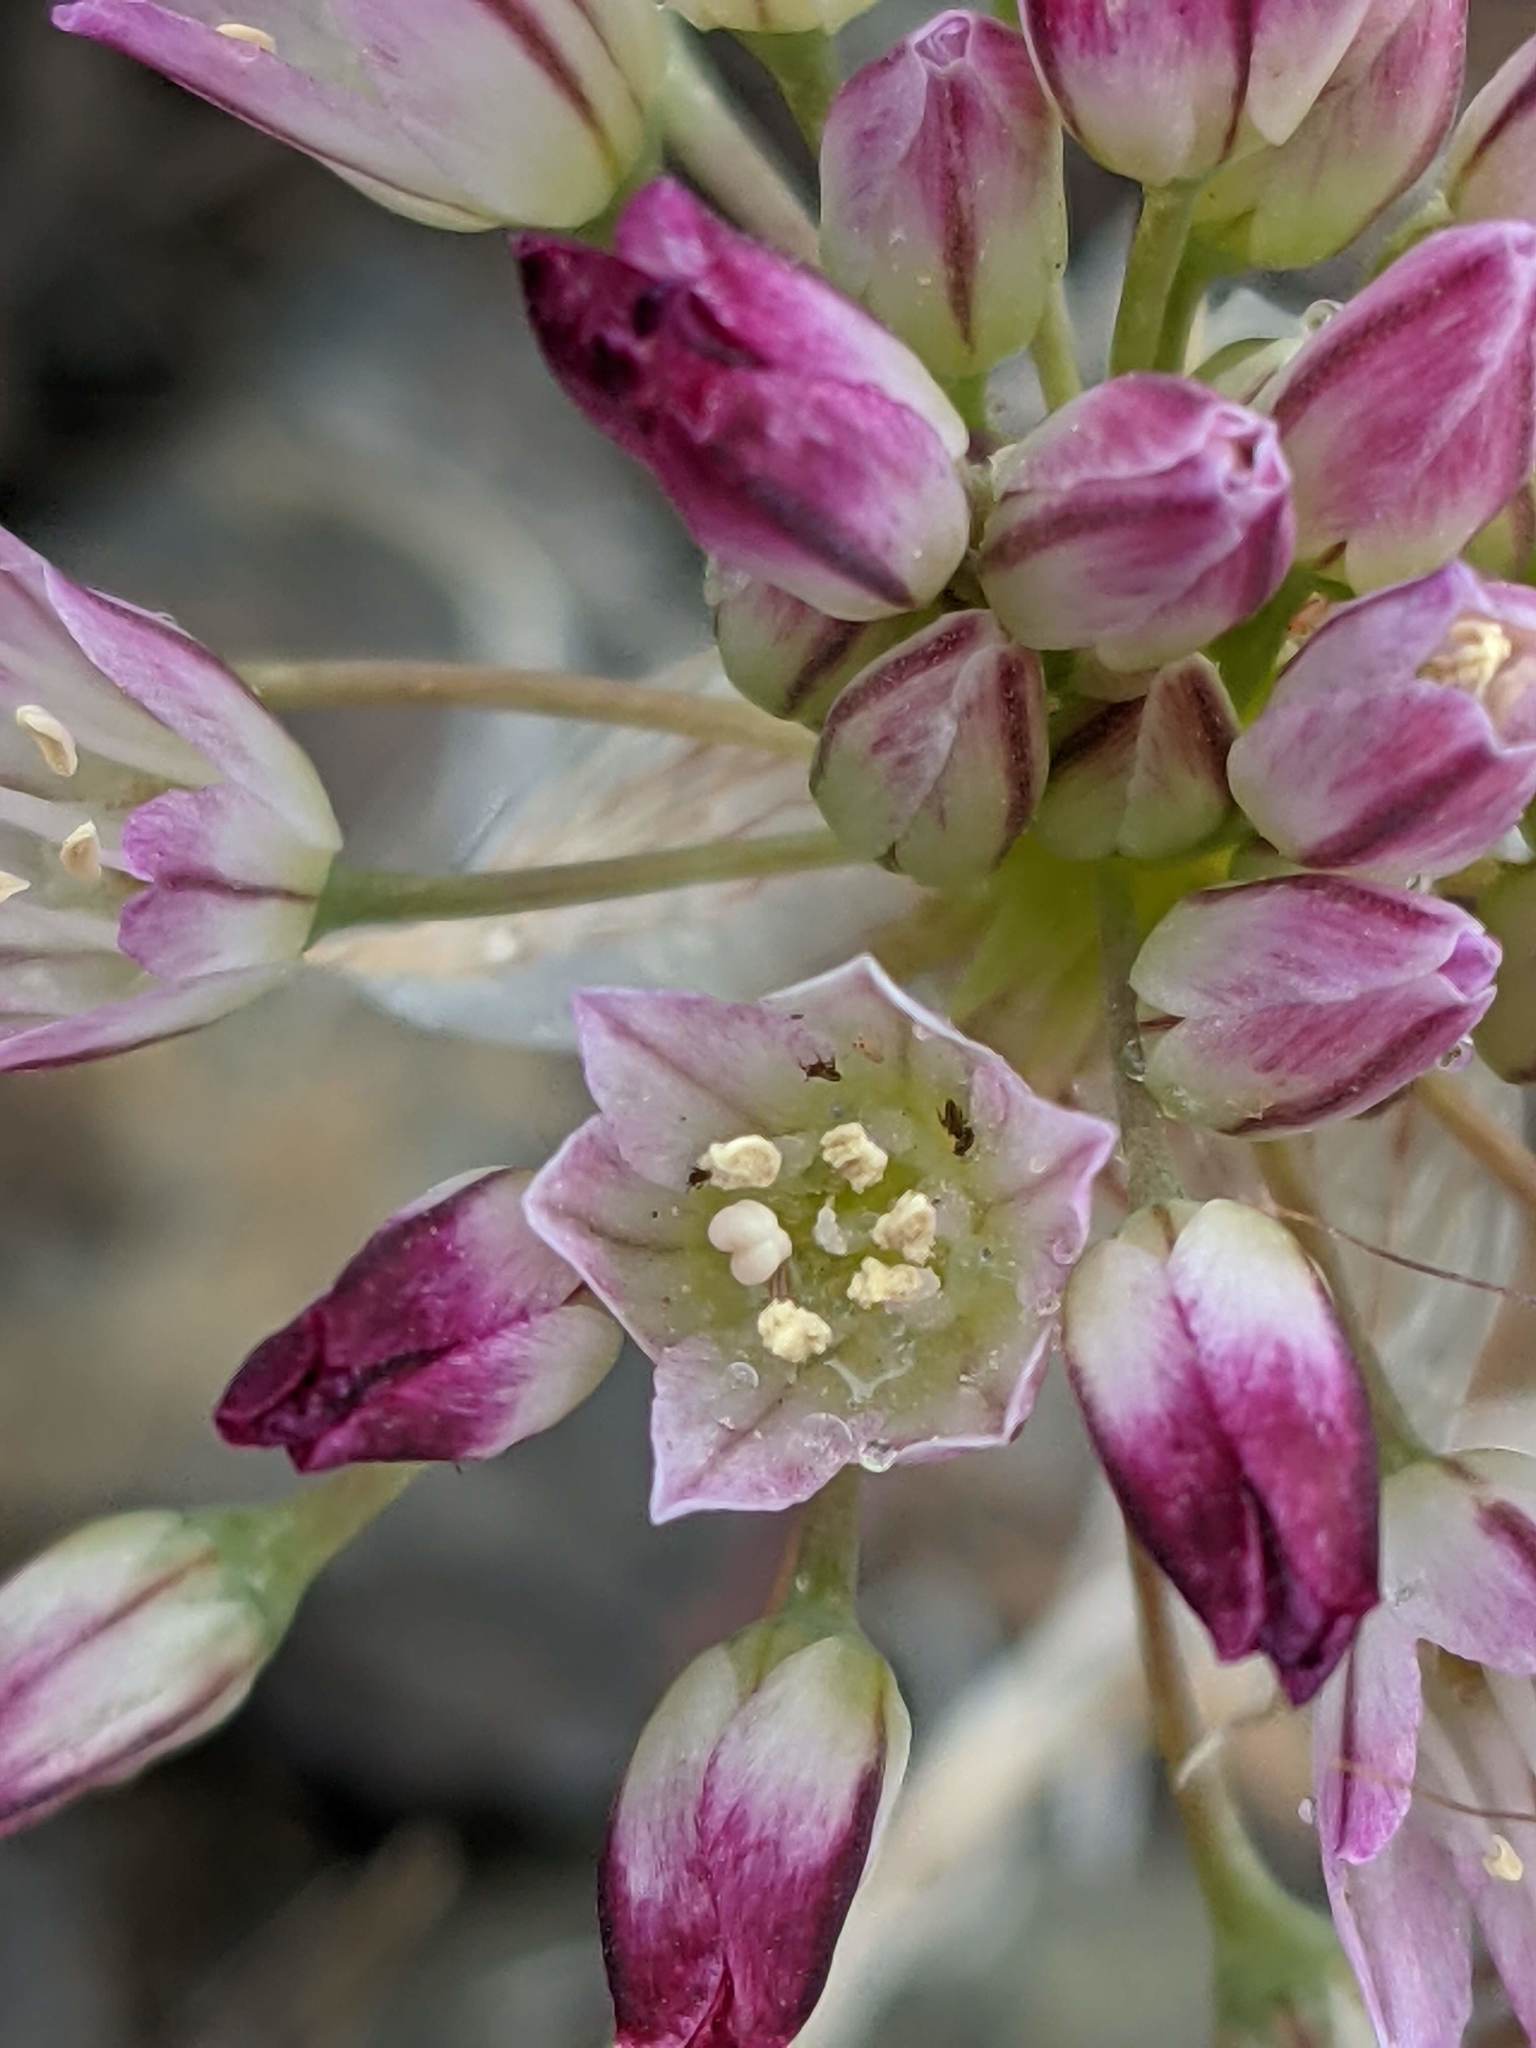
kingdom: Plantae
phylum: Tracheophyta
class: Liliopsida
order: Asparagales
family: Amaryllidaceae
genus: Allium
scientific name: Allium diabolense
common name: Serpentine onion
